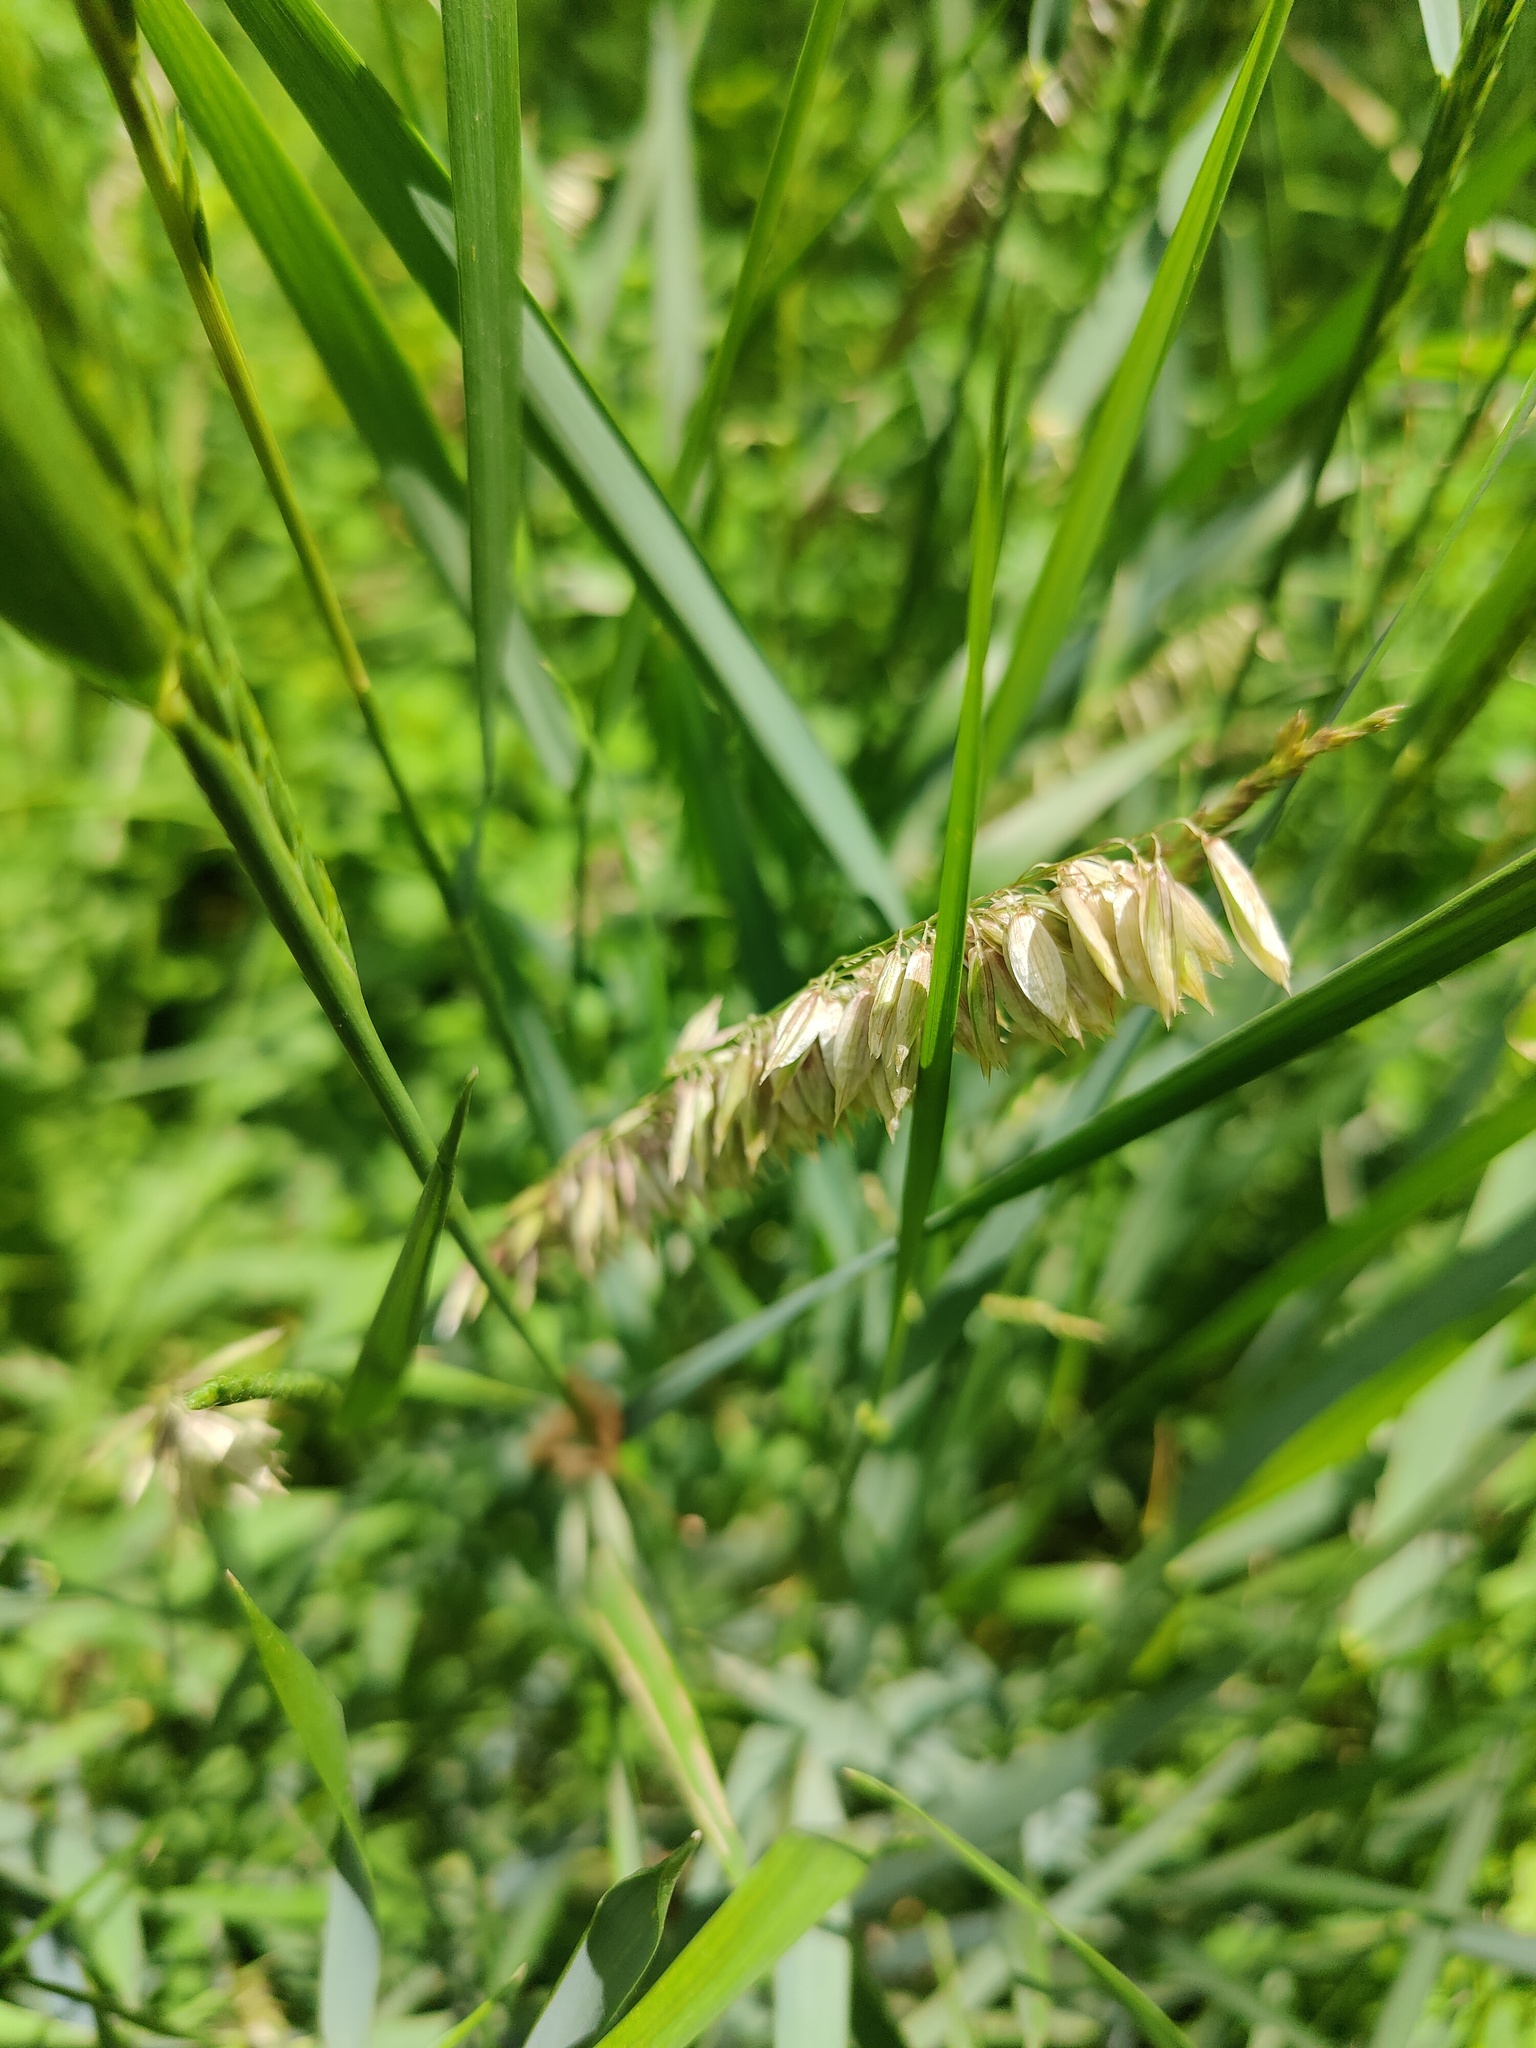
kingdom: Plantae
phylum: Tracheophyta
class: Liliopsida
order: Poales
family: Poaceae
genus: Melica
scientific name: Melica altissima
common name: Siberian melicgrass
